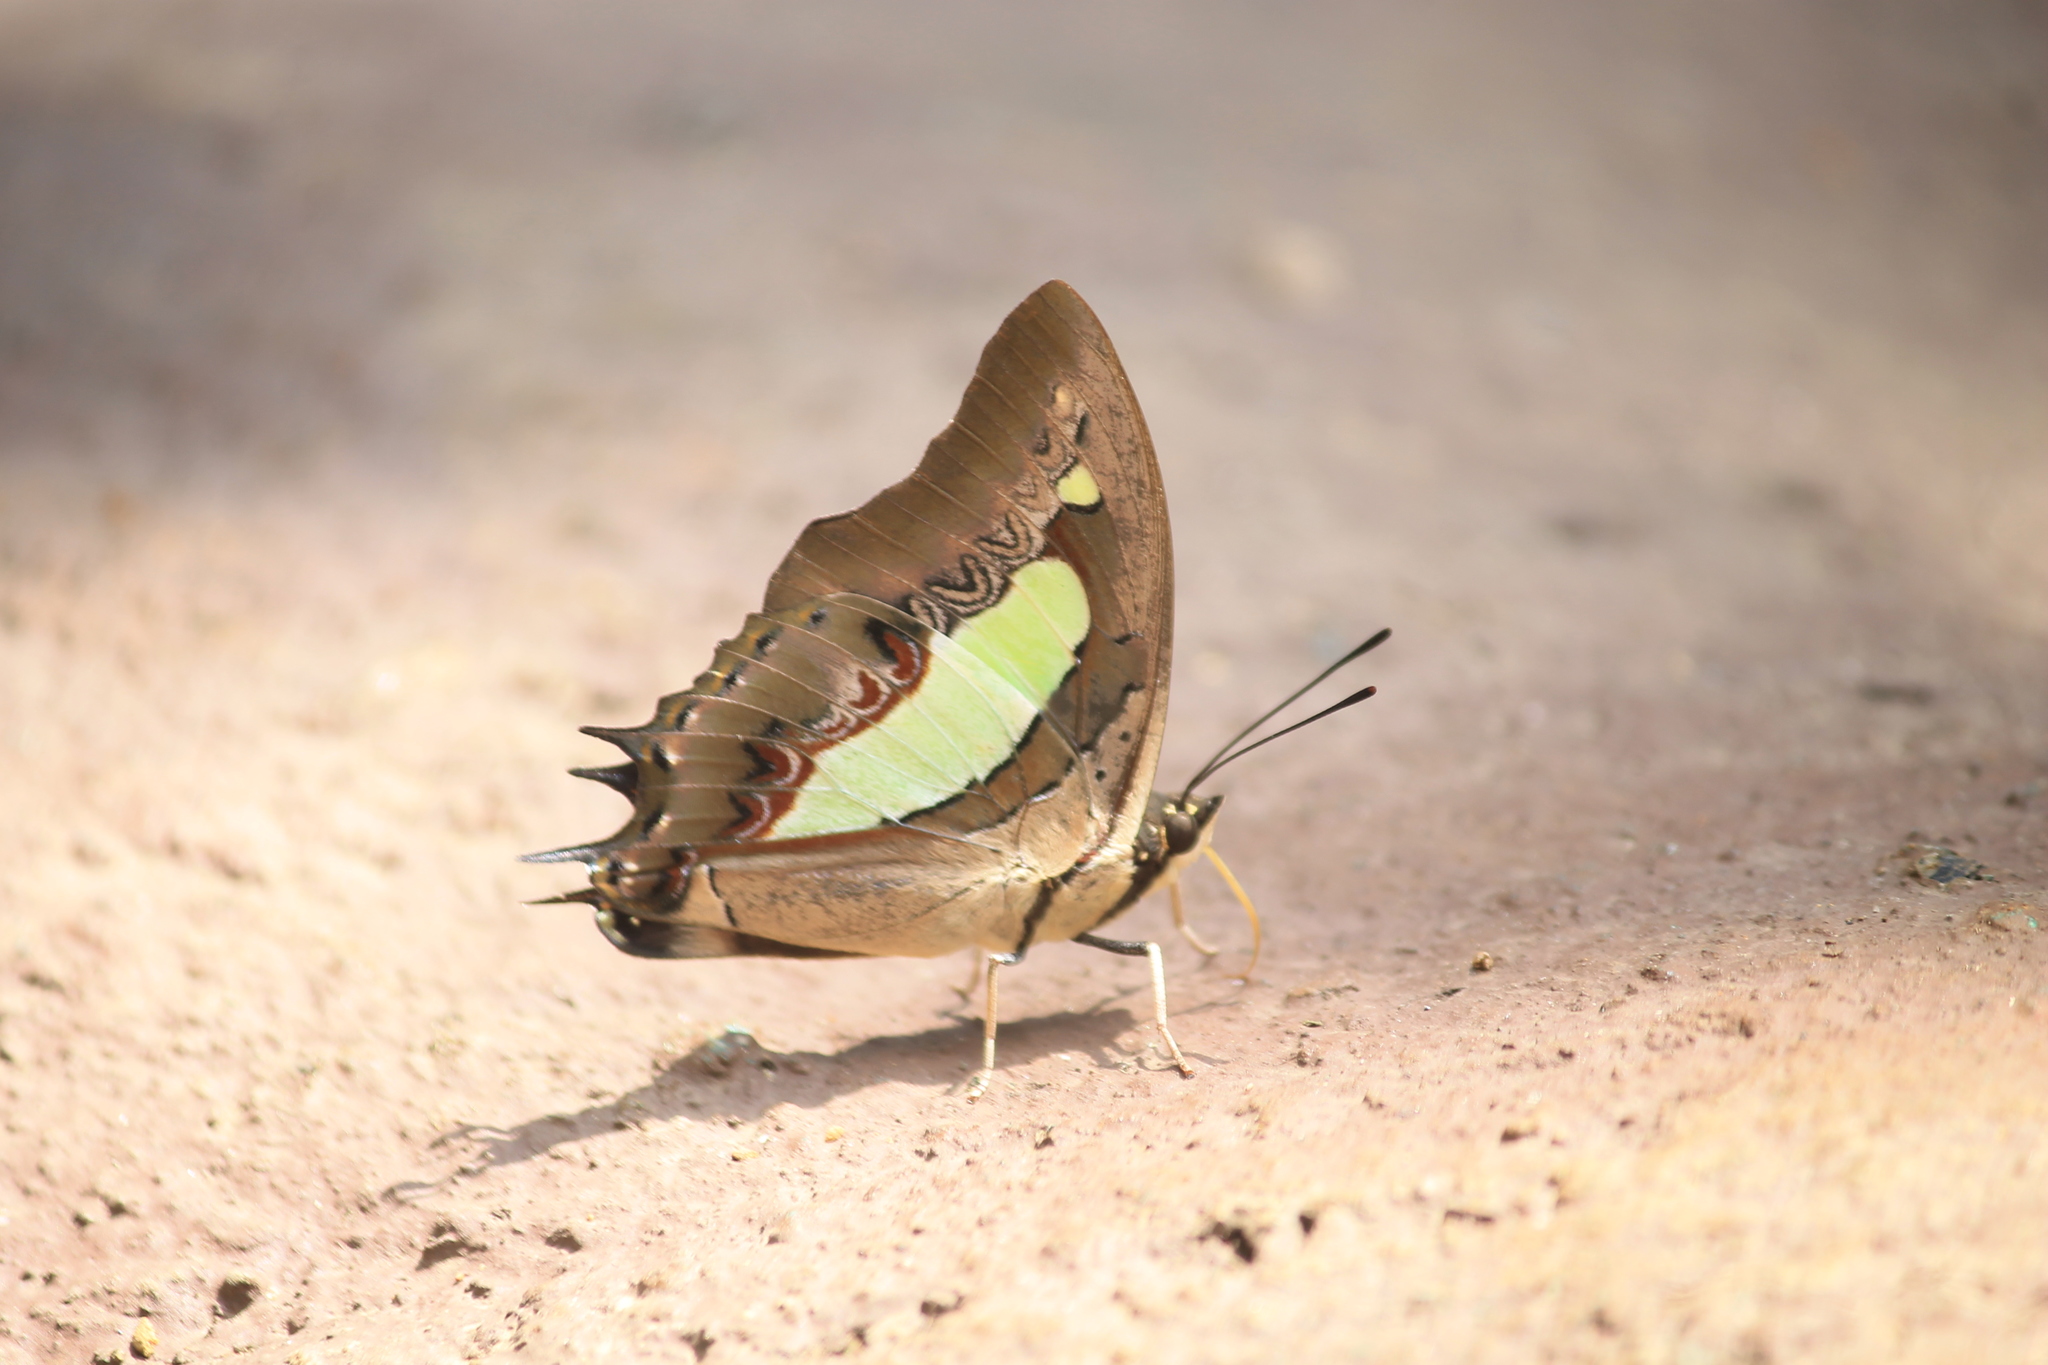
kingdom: Animalia
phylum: Arthropoda
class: Insecta
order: Lepidoptera
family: Nymphalidae
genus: Polyura
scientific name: Polyura
